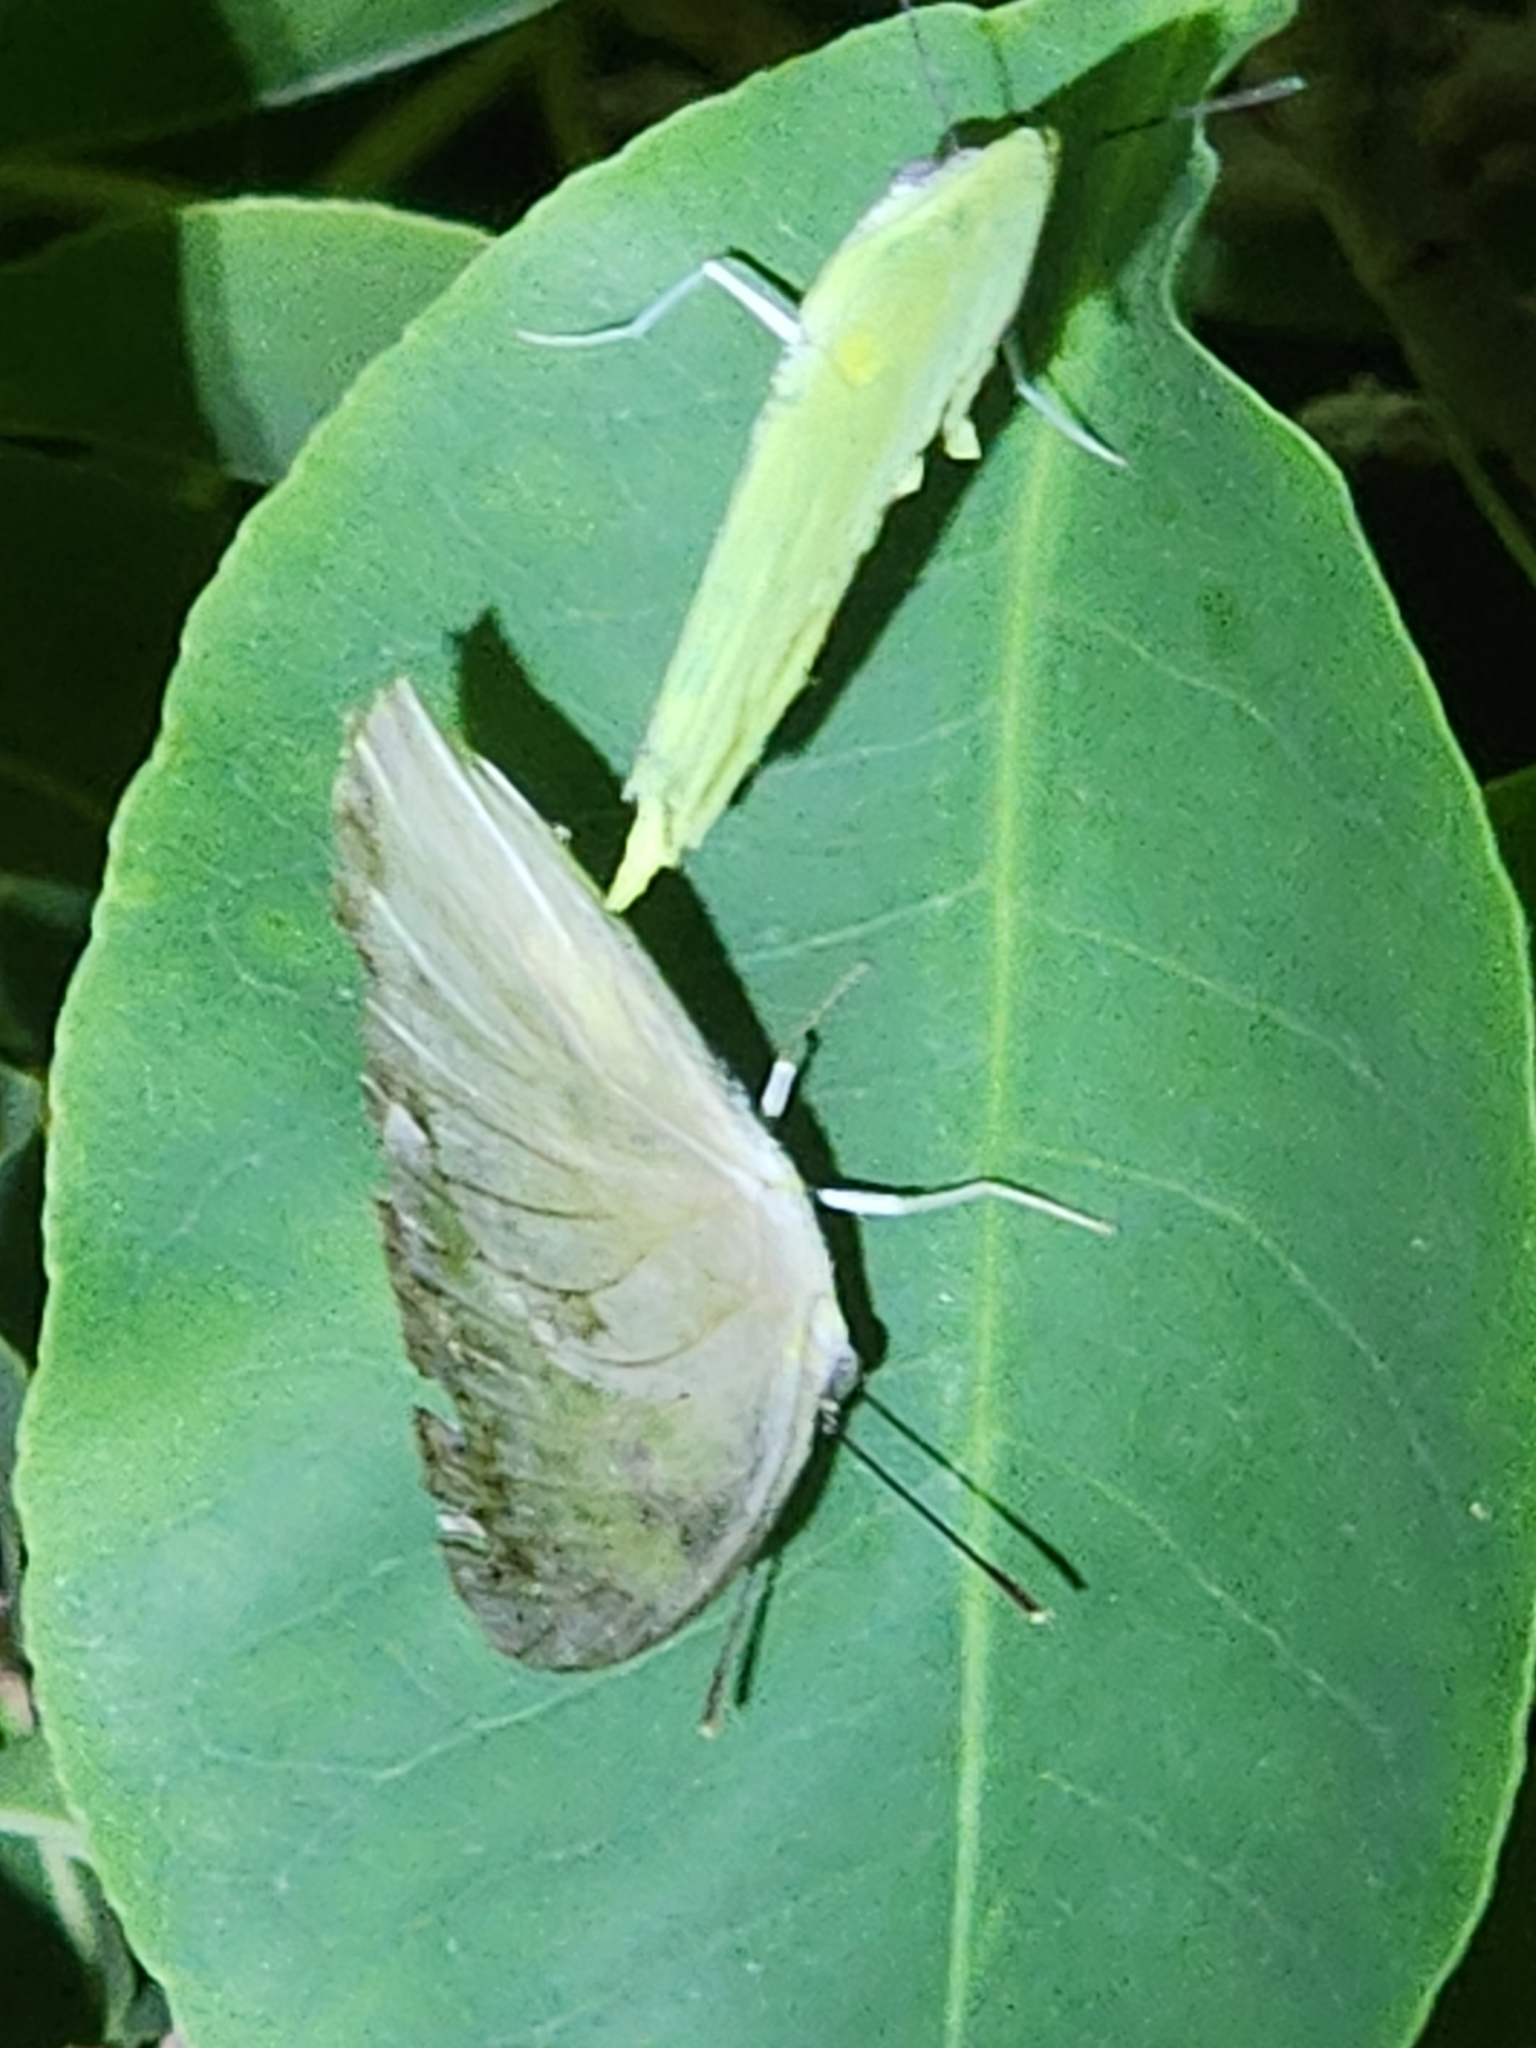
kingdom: Animalia
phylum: Arthropoda
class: Insecta
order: Lepidoptera
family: Pieridae
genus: Catopsilia
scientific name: Catopsilia pomona
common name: Common emigrant
